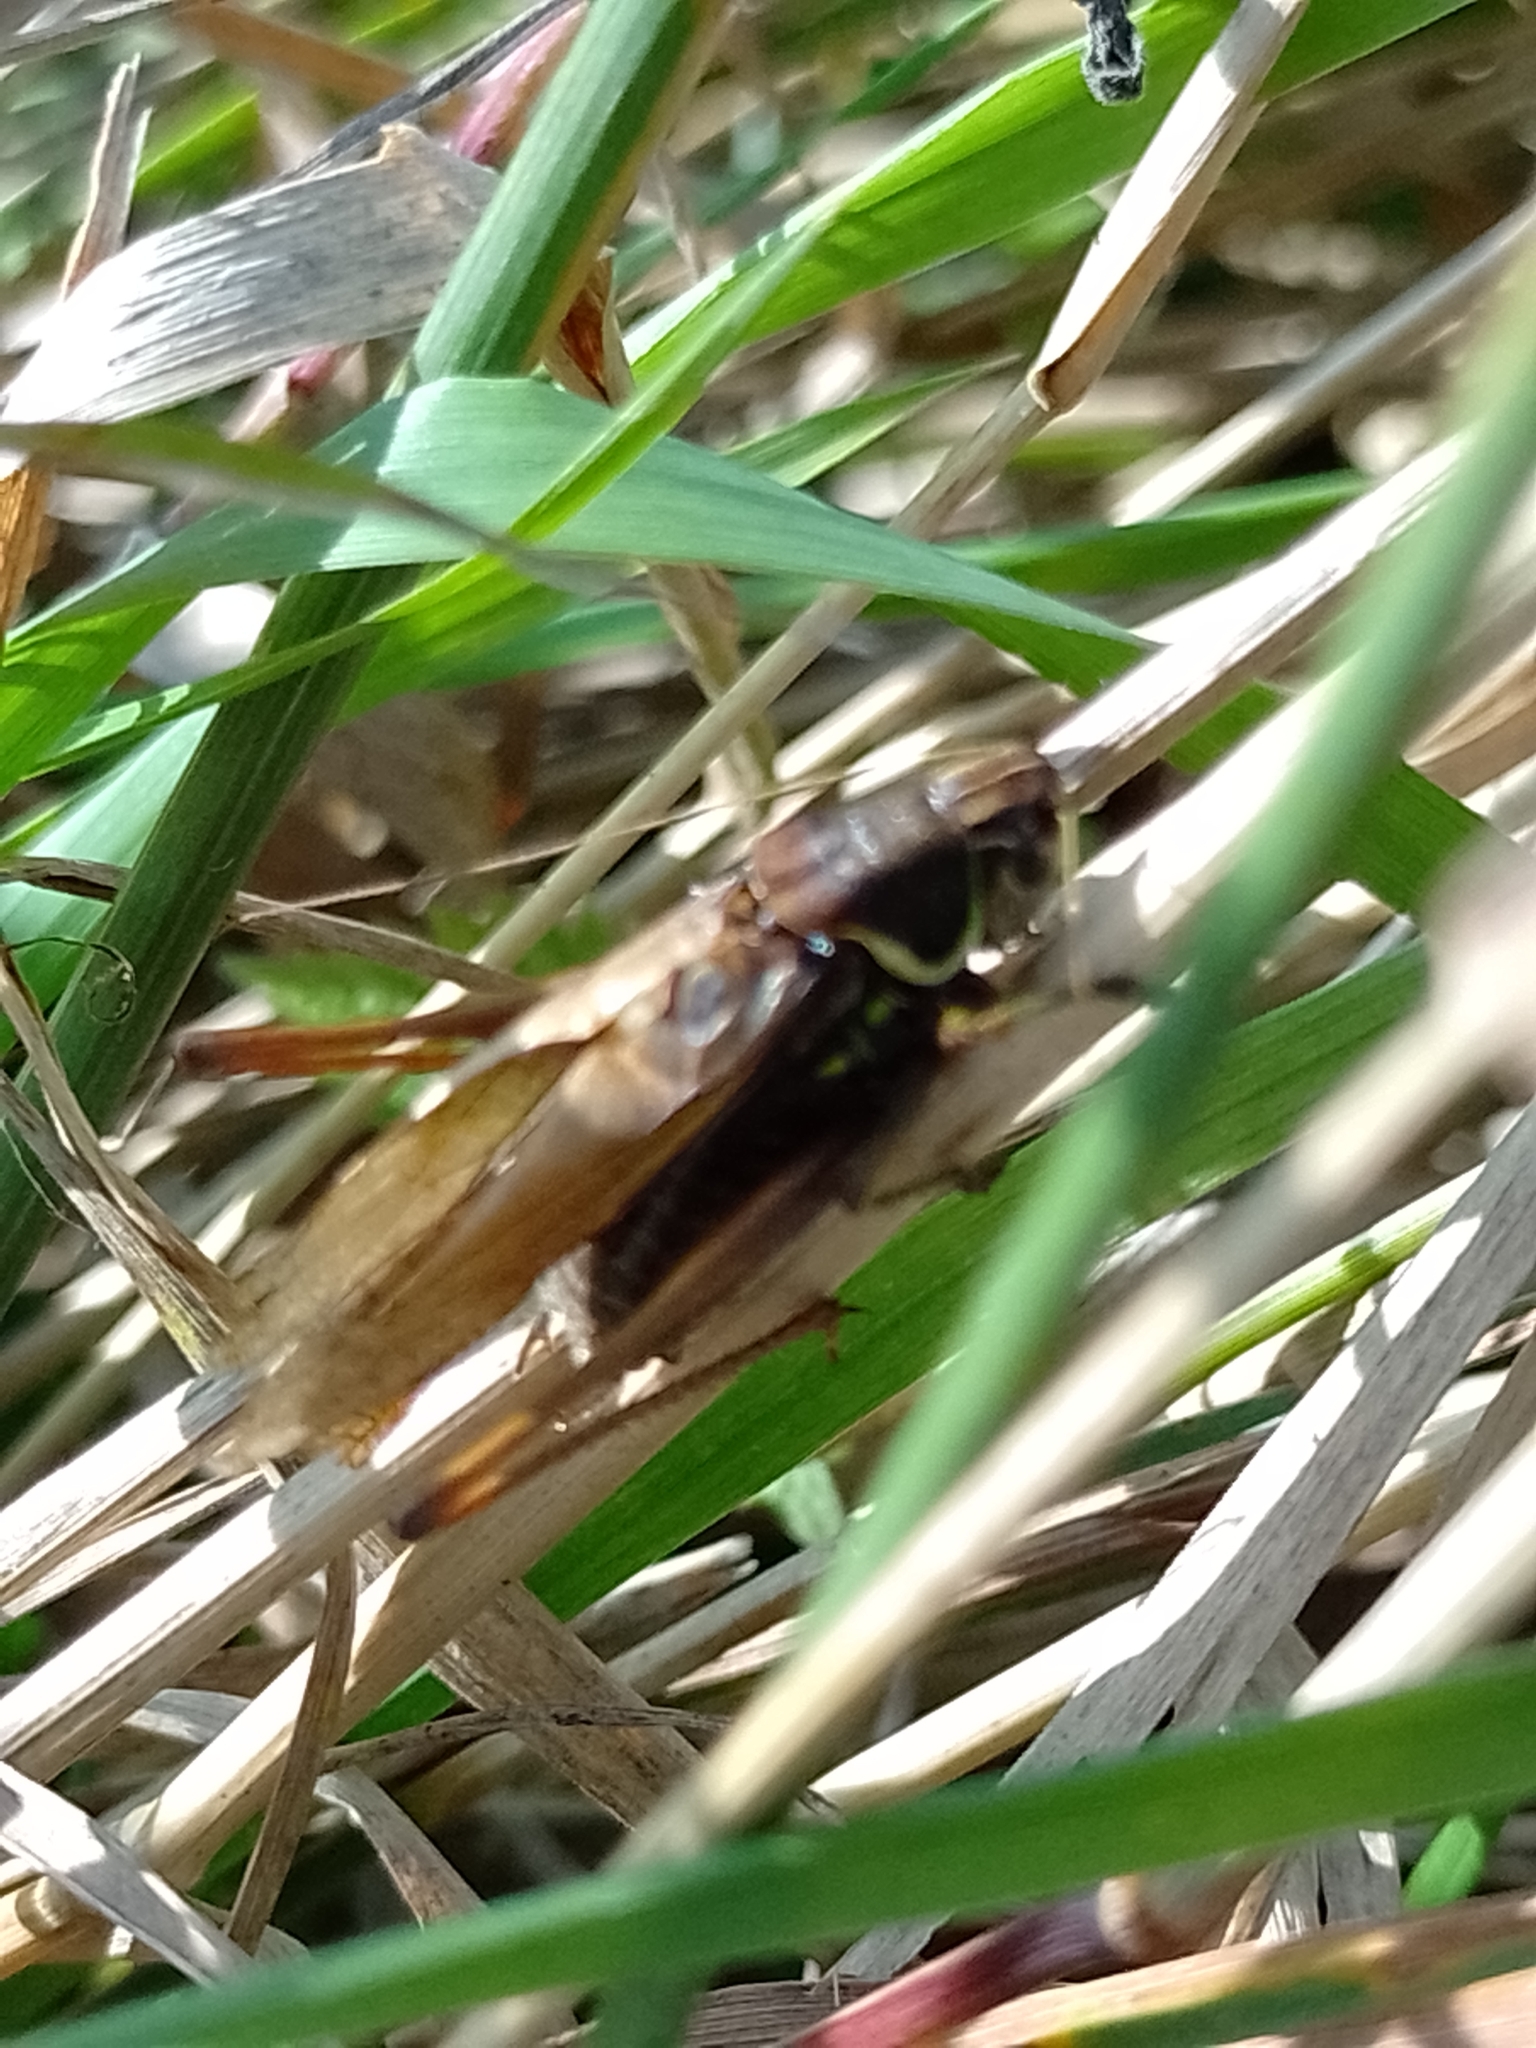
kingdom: Animalia
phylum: Arthropoda
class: Insecta
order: Orthoptera
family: Tettigoniidae
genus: Roeseliana
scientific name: Roeseliana roeselii
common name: Roesel's bush cricket
